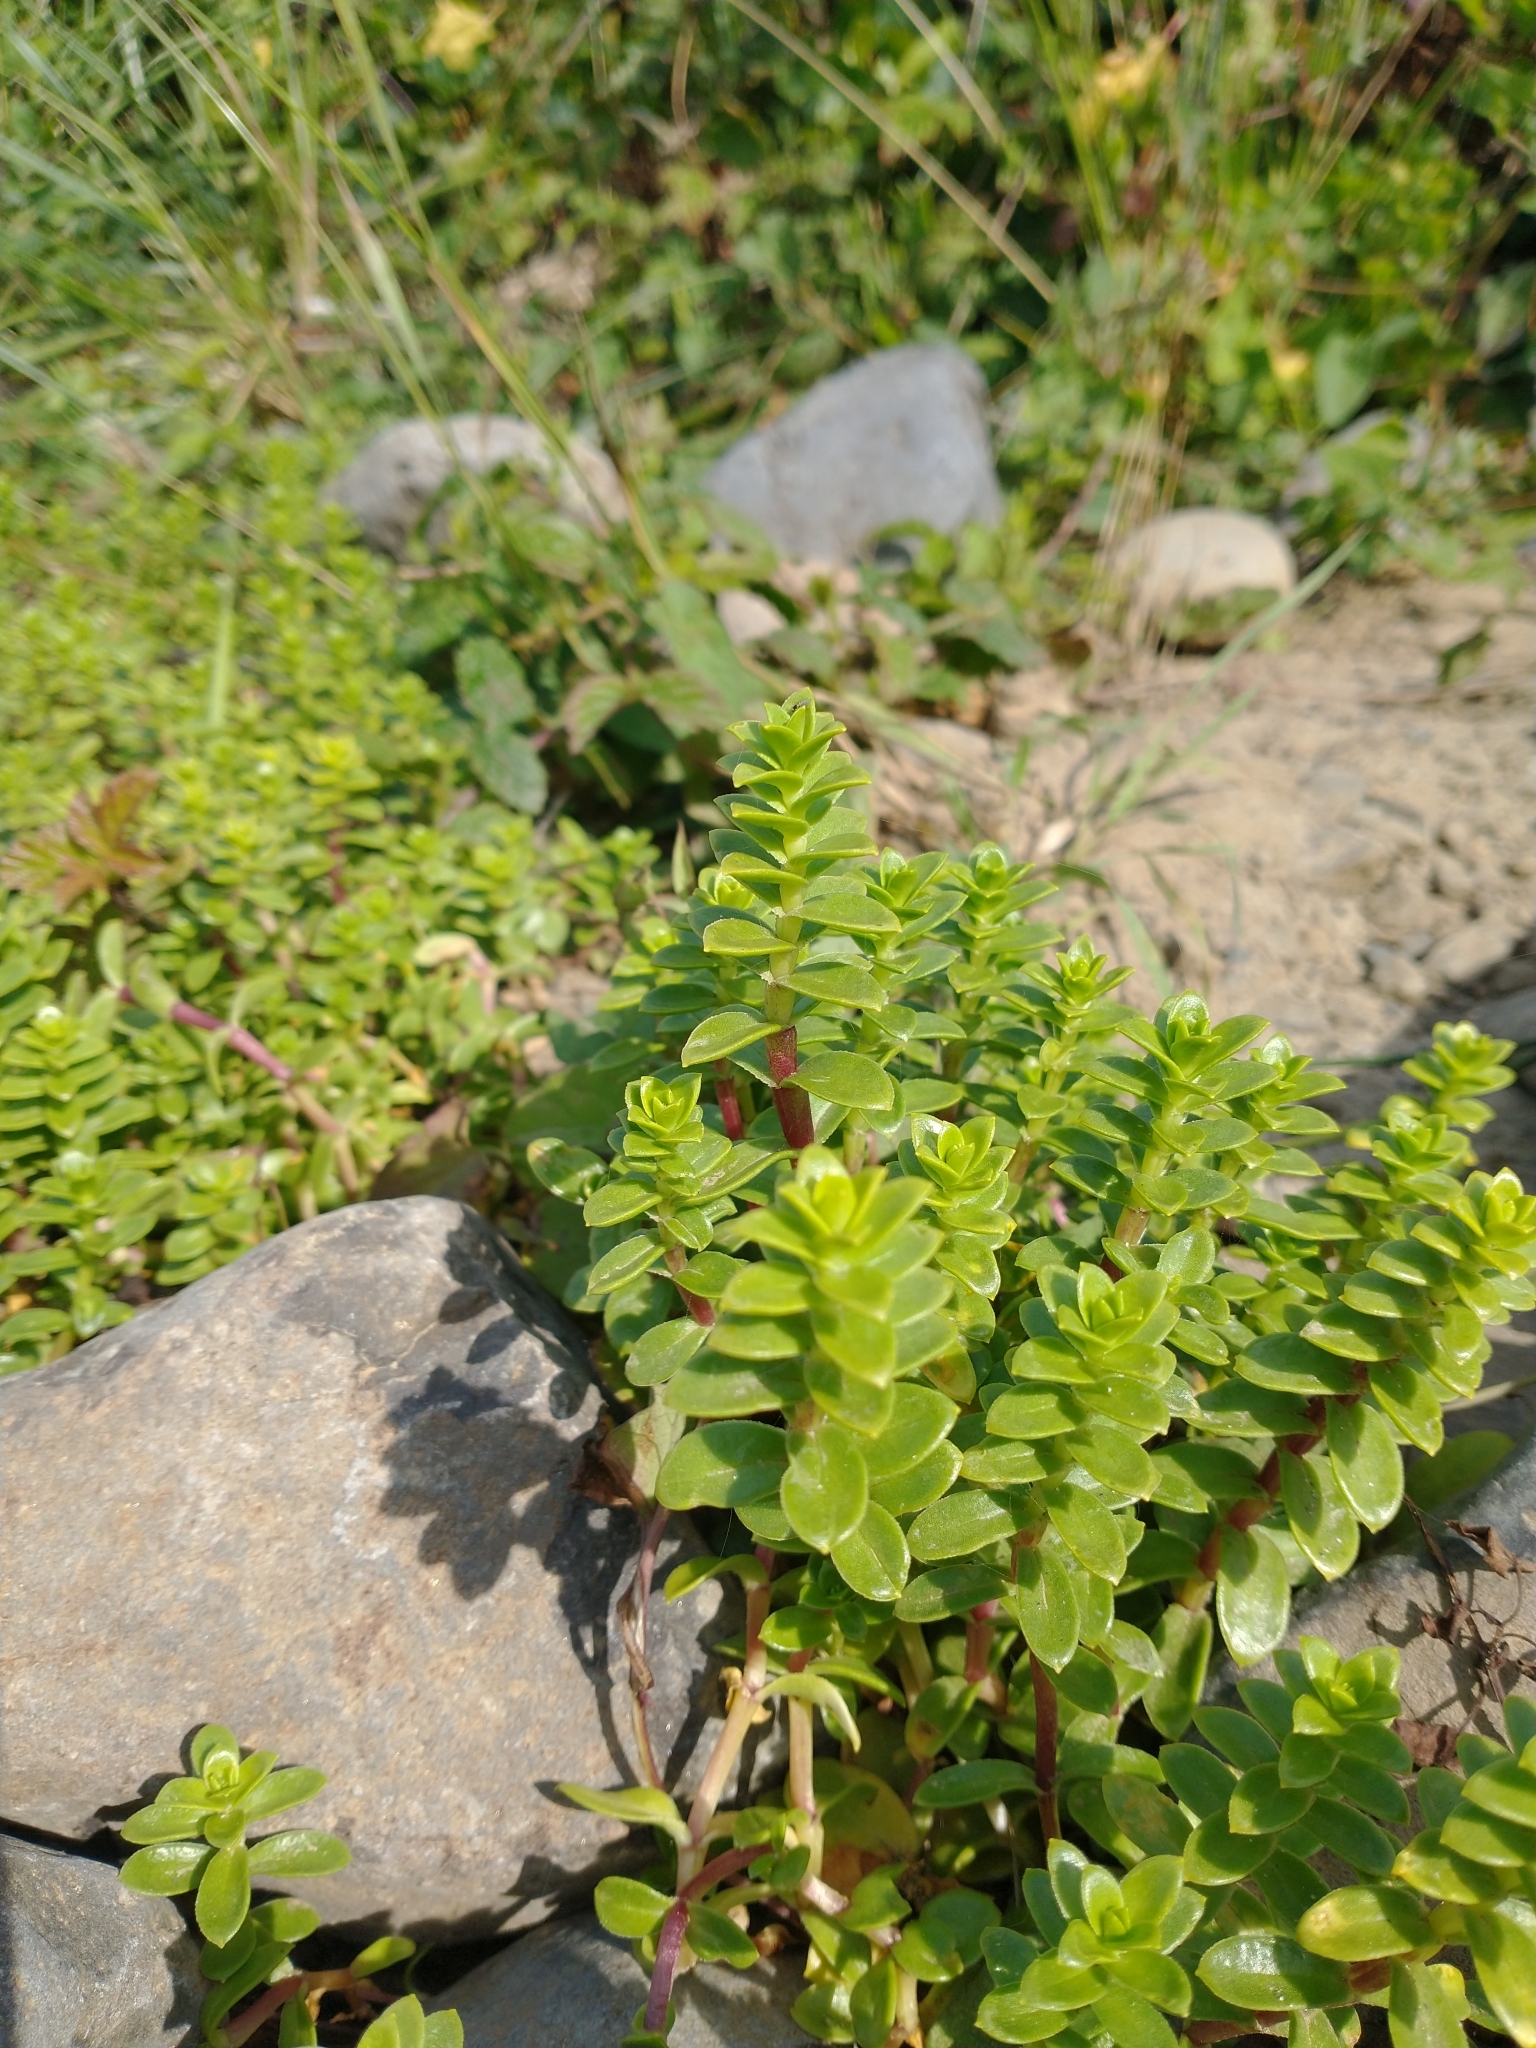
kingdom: Plantae
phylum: Tracheophyta
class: Magnoliopsida
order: Caryophyllales
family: Caryophyllaceae
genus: Honckenya
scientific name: Honckenya peploides
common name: Sea sandwort
